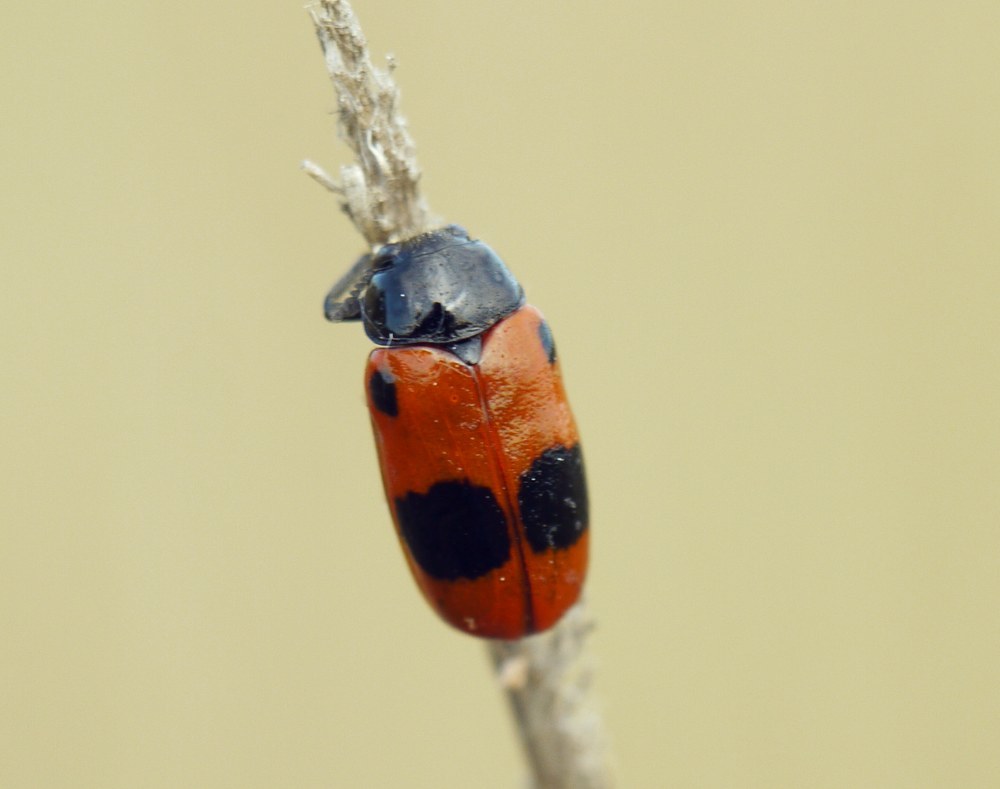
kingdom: Animalia
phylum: Arthropoda
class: Insecta
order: Coleoptera
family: Chrysomelidae
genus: Clytra
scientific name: Clytra laeviuscula
